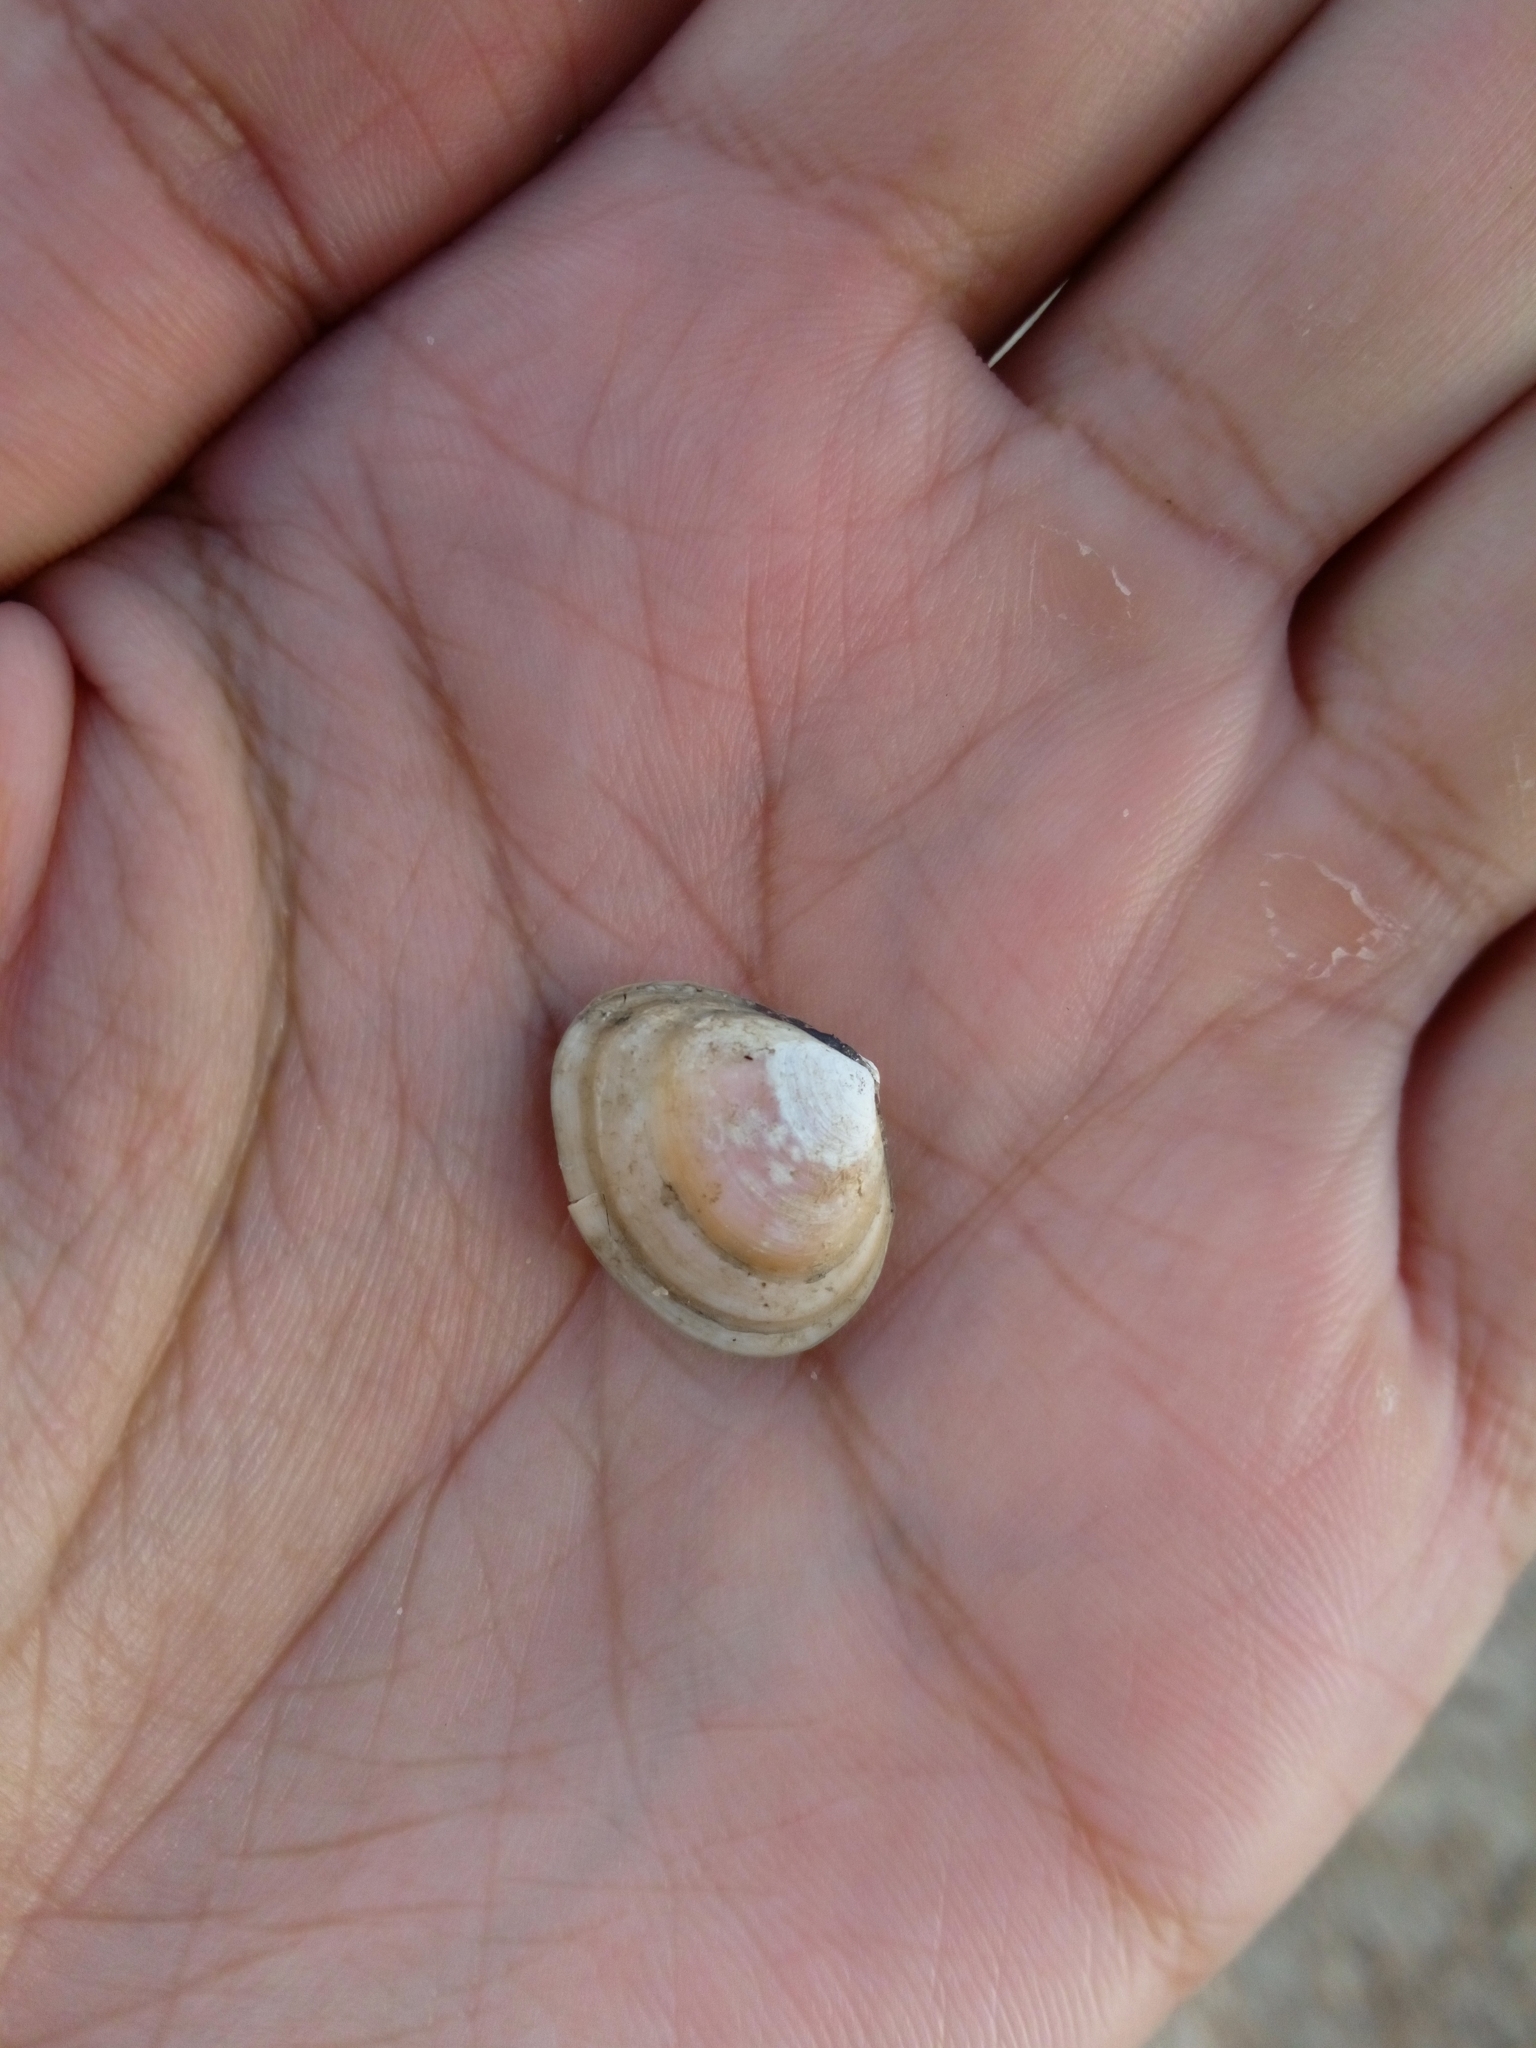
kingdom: Animalia
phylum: Mollusca
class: Bivalvia
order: Cardiida
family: Tellinidae
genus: Macoma
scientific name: Macoma balthica
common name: Baltic tellin
